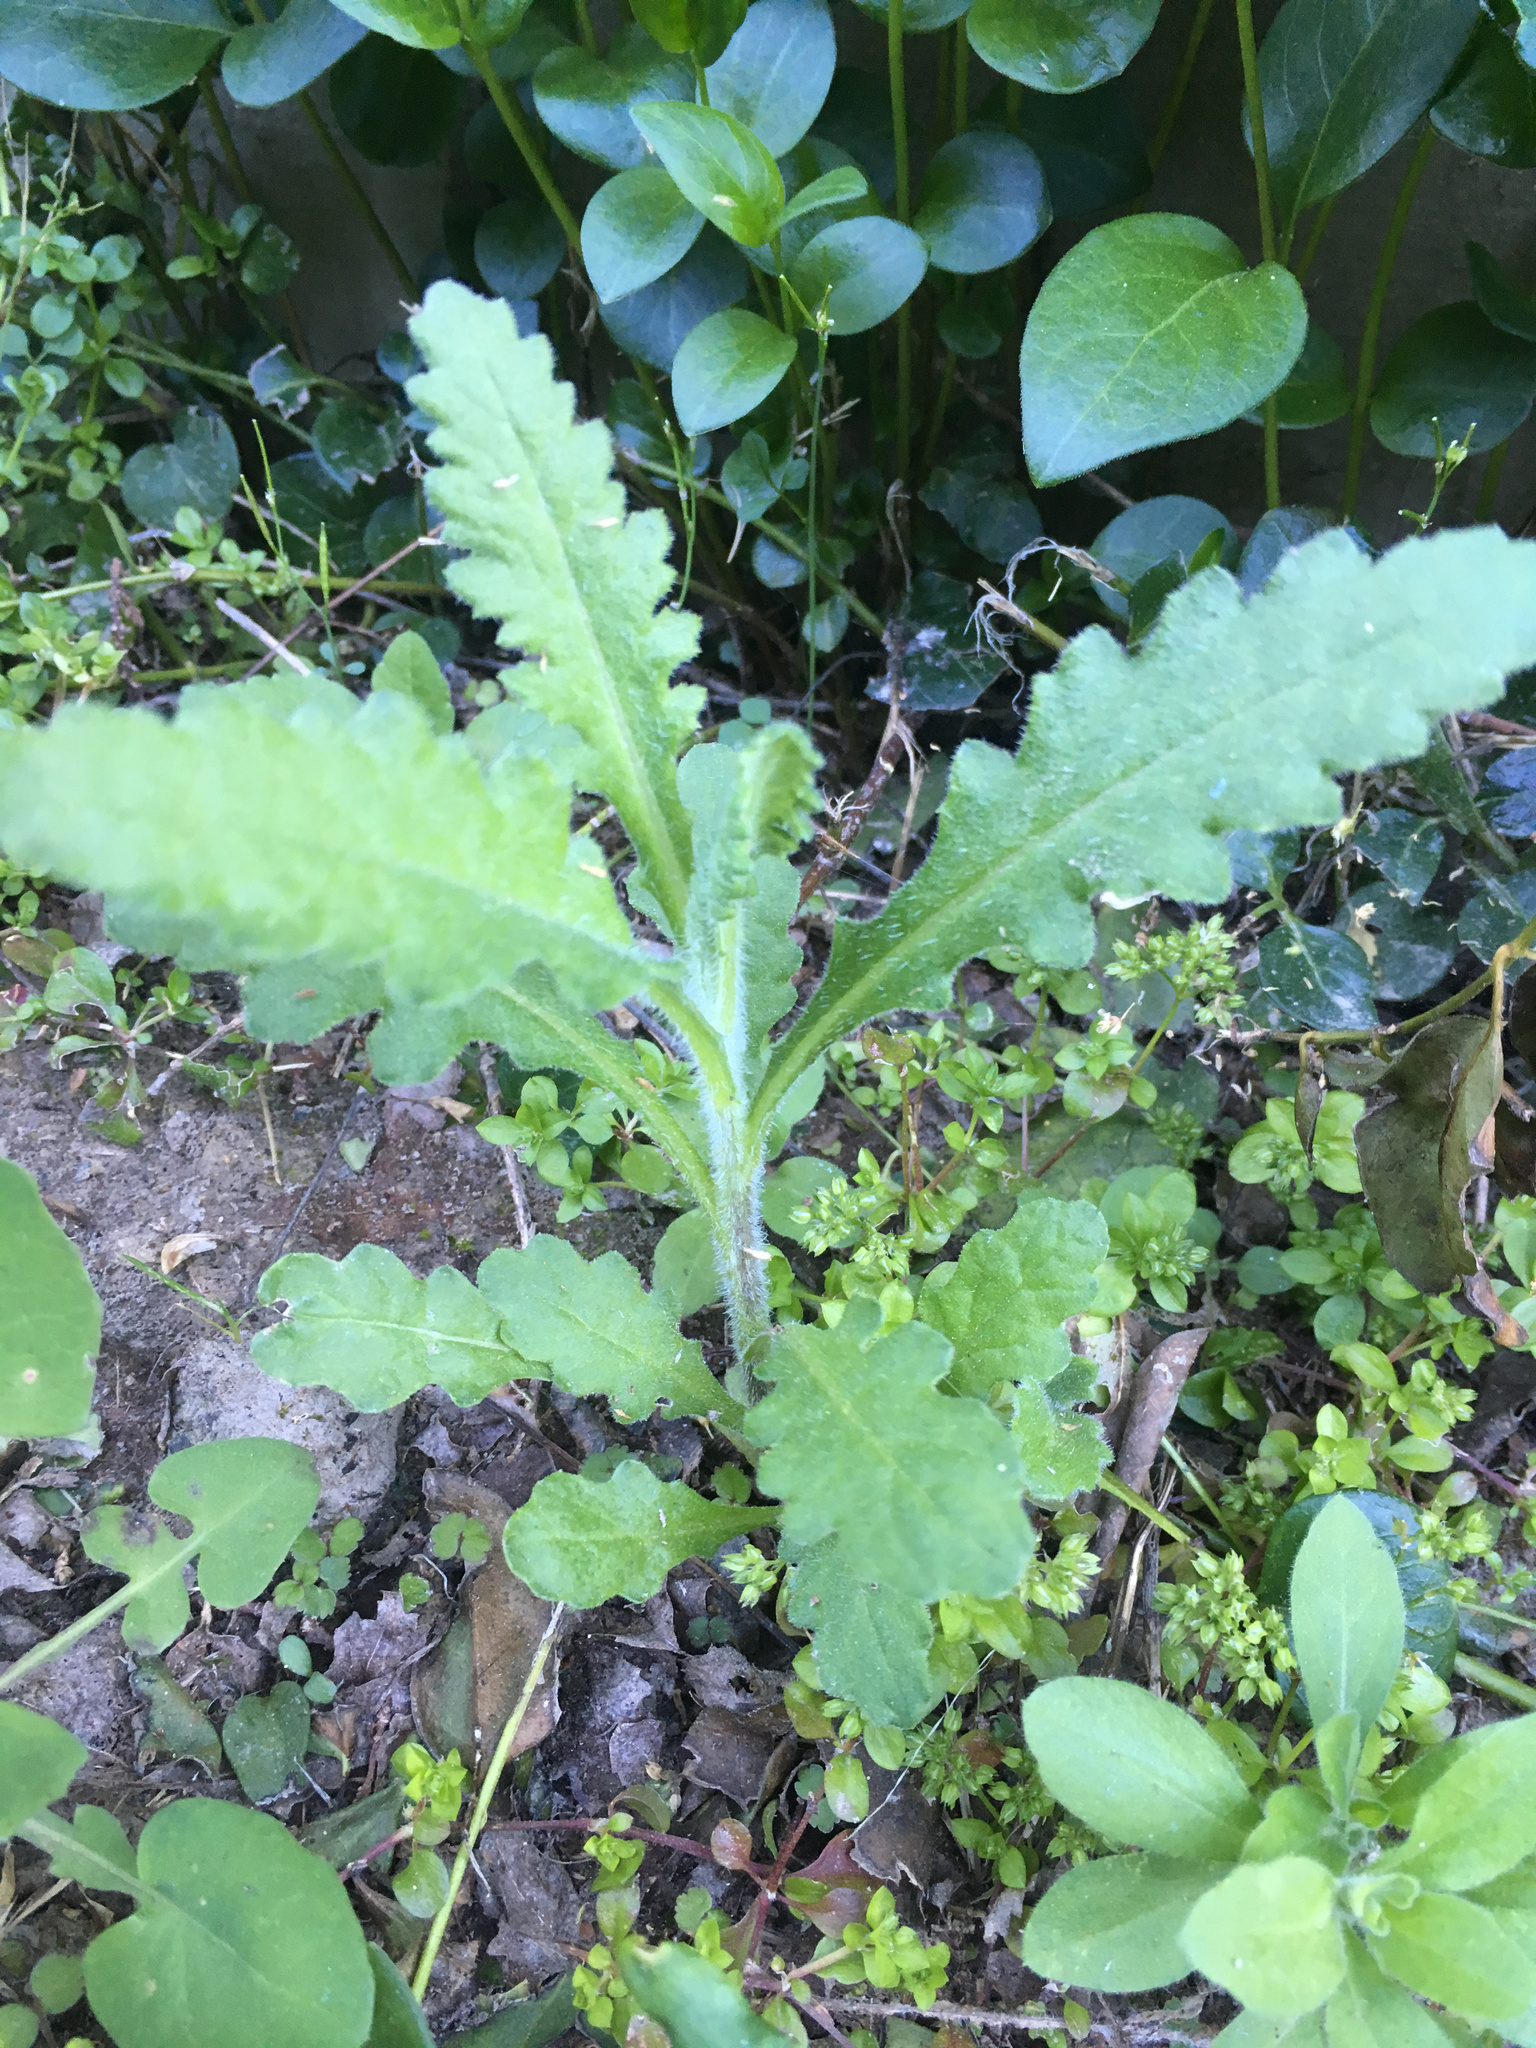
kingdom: Plantae
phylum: Tracheophyta
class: Magnoliopsida
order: Asterales
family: Asteraceae
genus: Senecio
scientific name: Senecio glomeratus
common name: Cutleaf burnweed
